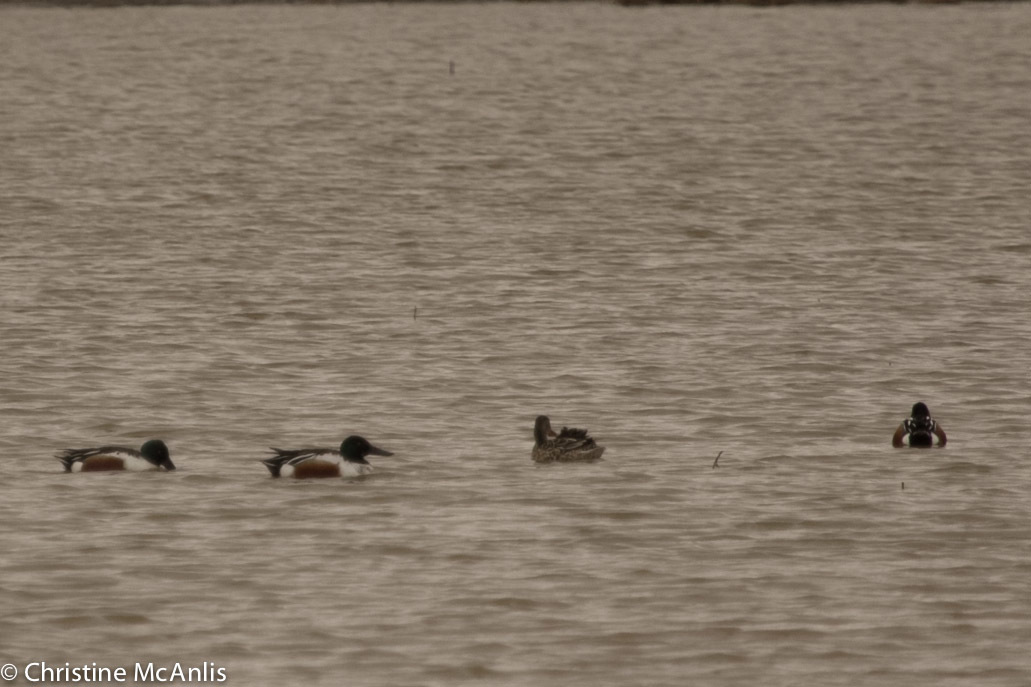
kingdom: Animalia
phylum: Chordata
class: Aves
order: Anseriformes
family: Anatidae
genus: Spatula
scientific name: Spatula clypeata
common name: Northern shoveler
